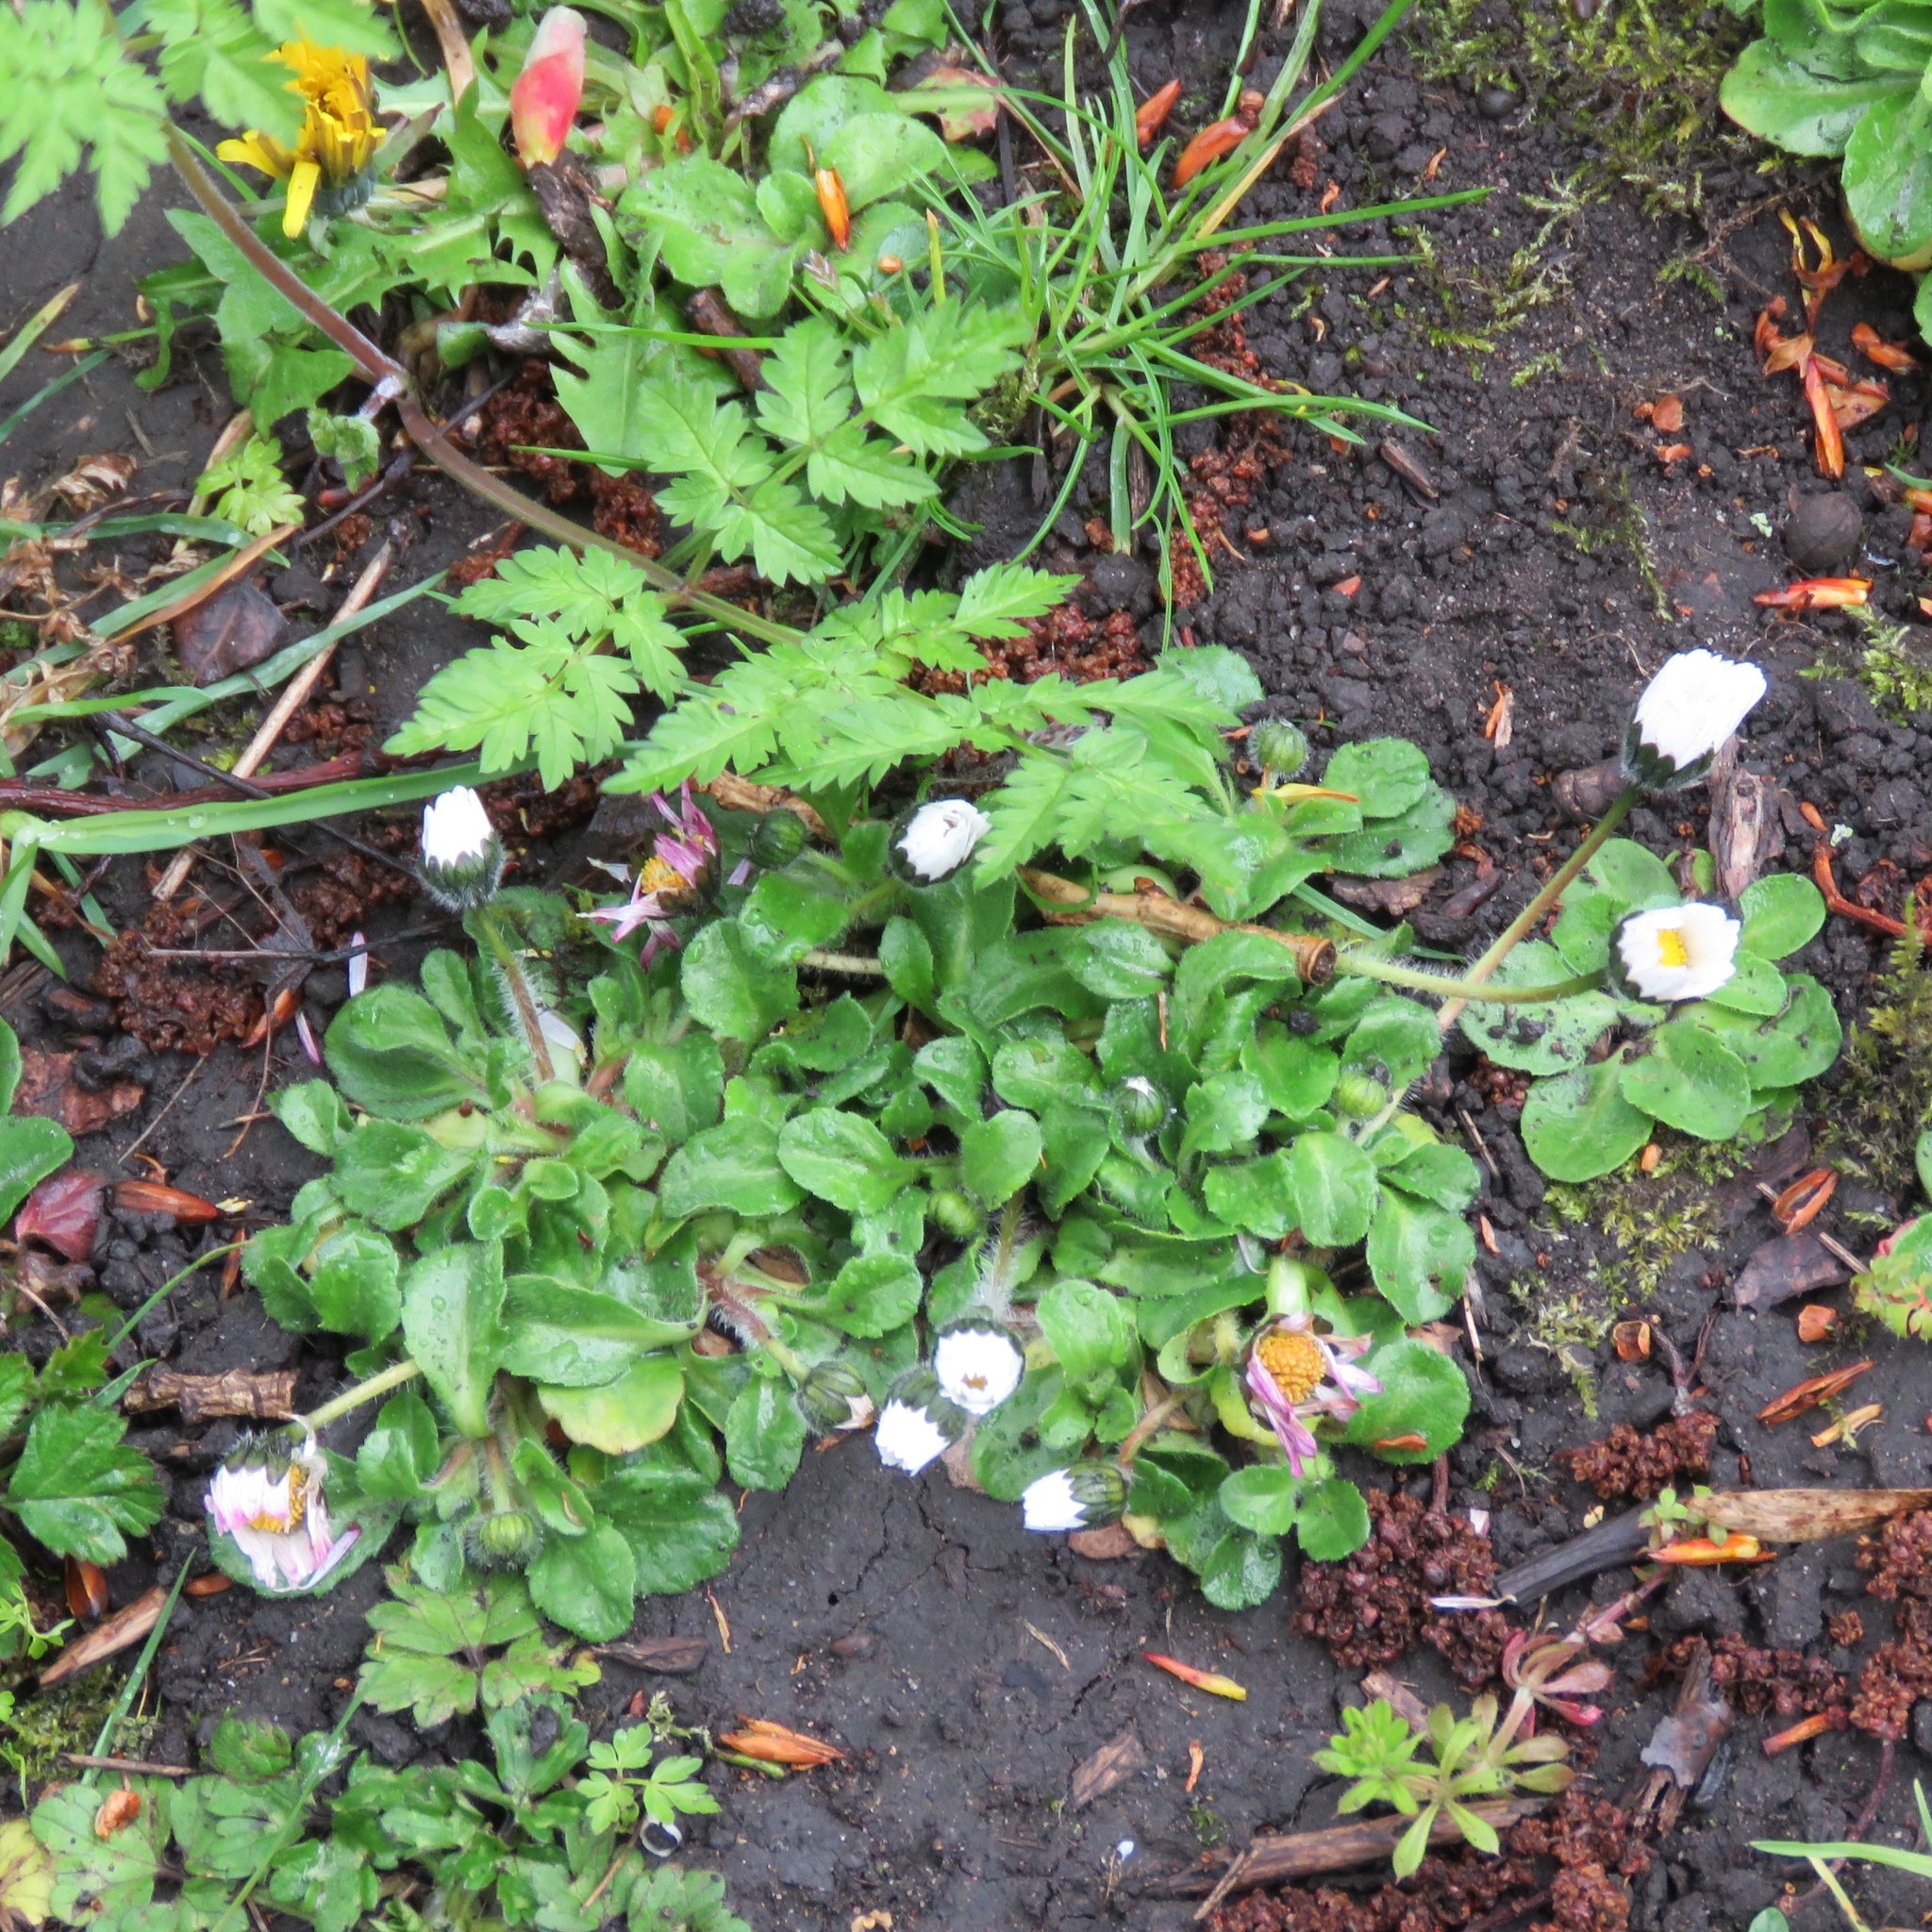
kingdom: Plantae
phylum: Tracheophyta
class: Magnoliopsida
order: Asterales
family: Asteraceae
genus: Bellis
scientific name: Bellis perennis
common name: Lawndaisy
